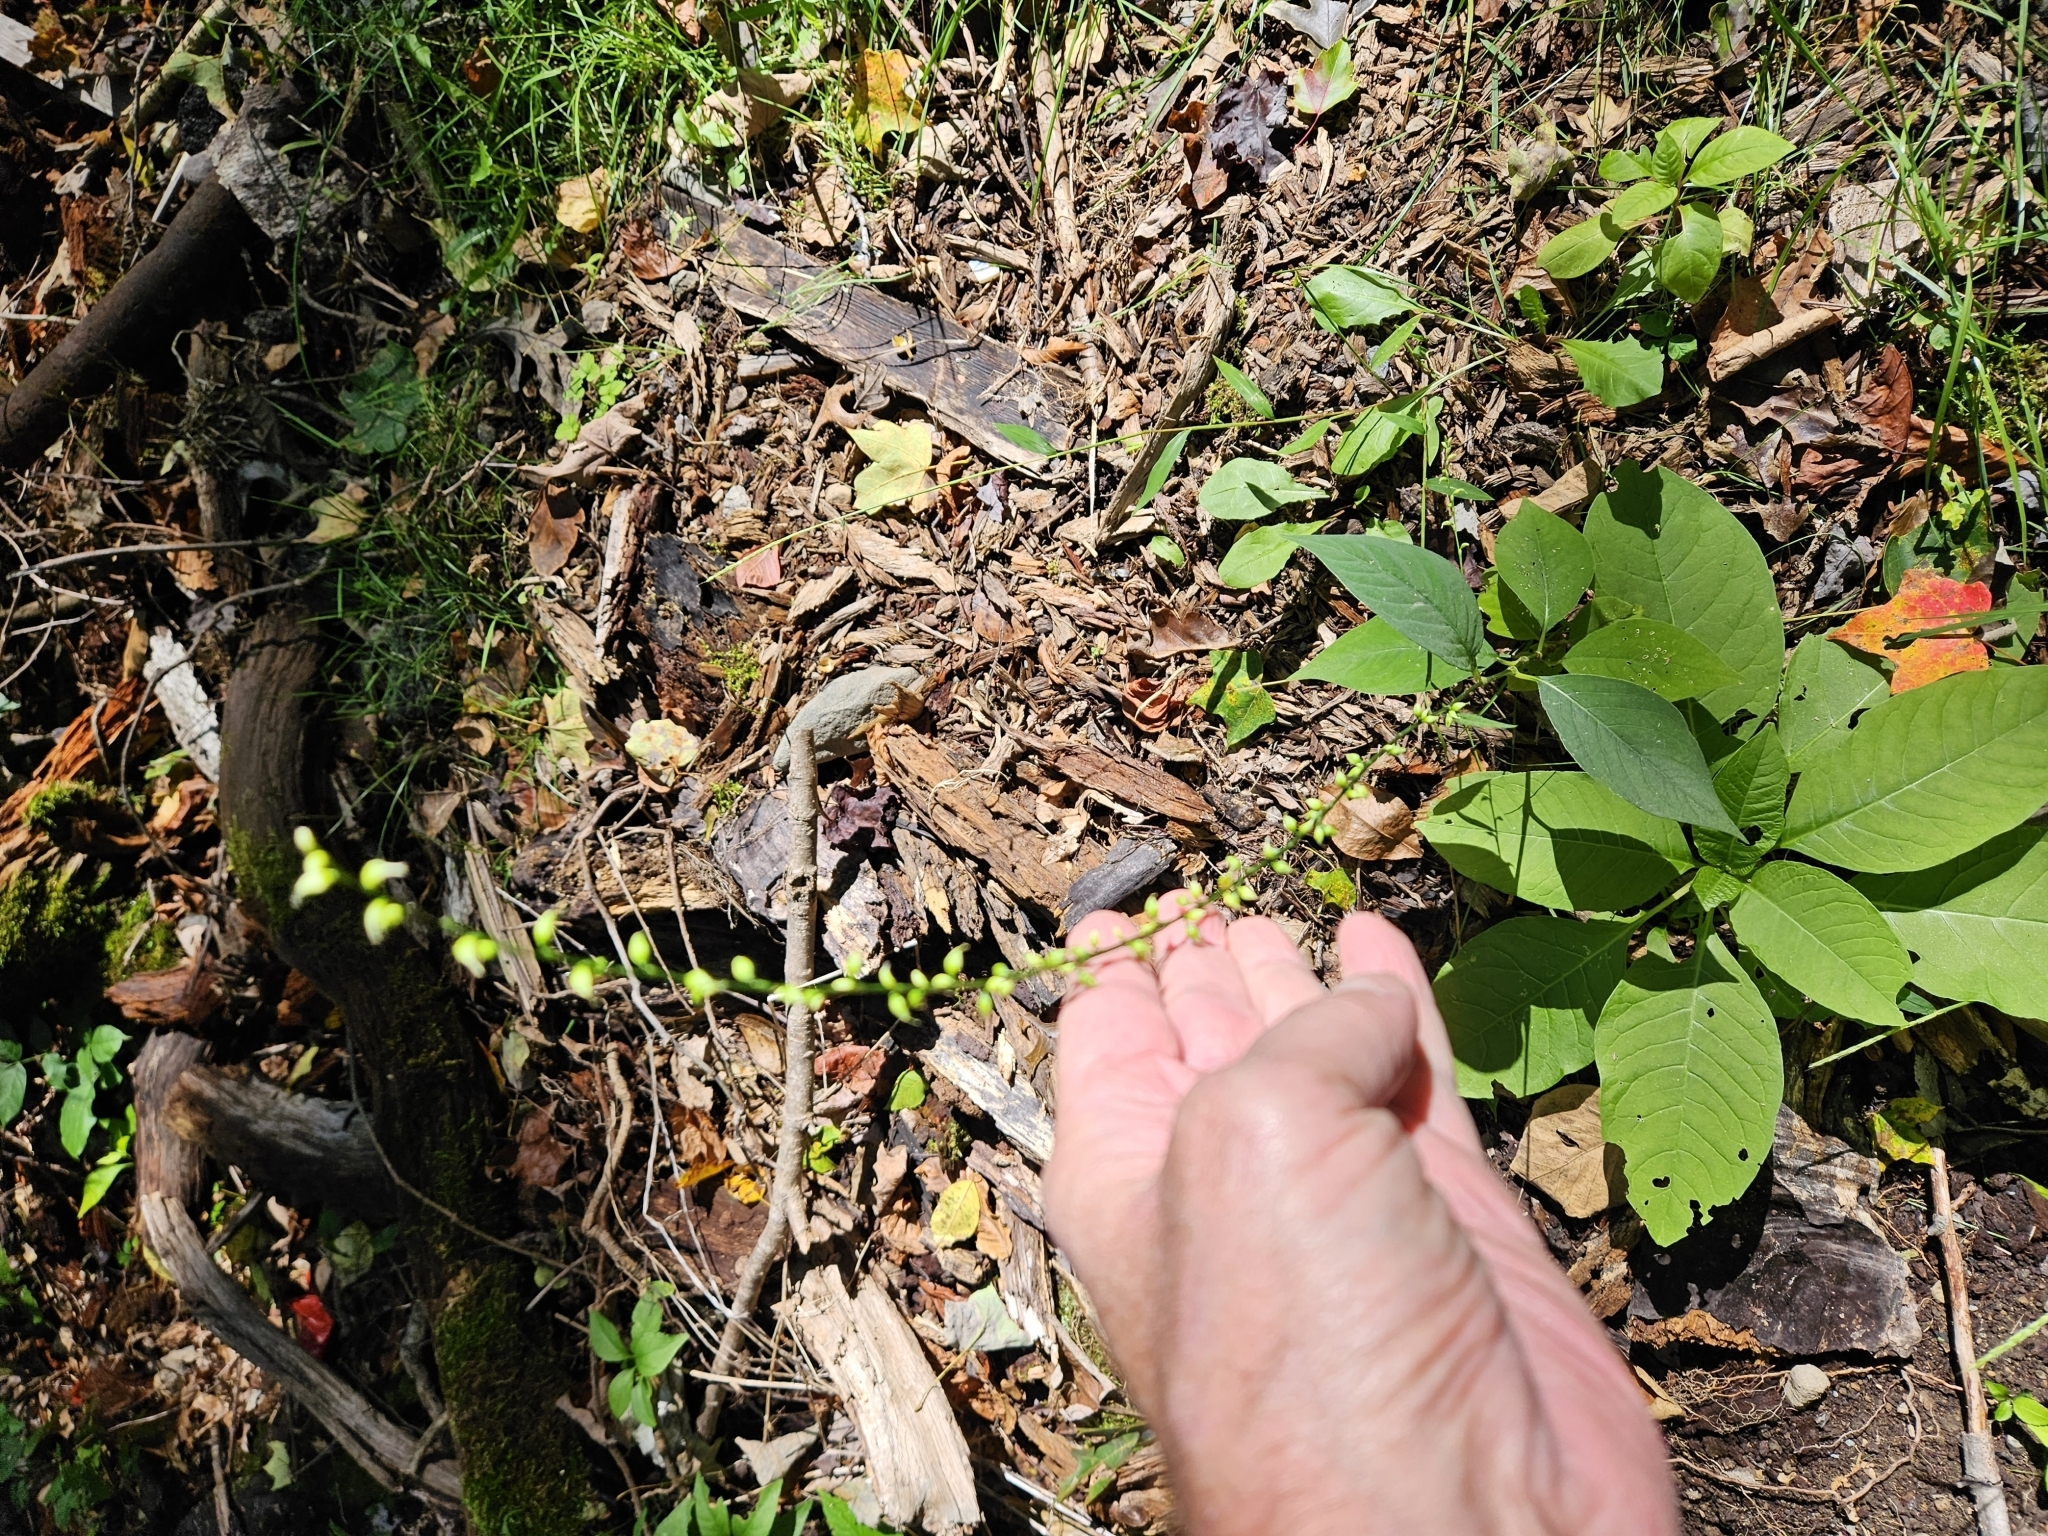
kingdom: Plantae
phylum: Tracheophyta
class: Magnoliopsida
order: Caryophyllales
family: Polygonaceae
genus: Persicaria
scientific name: Persicaria virginiana
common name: Jumpseed
